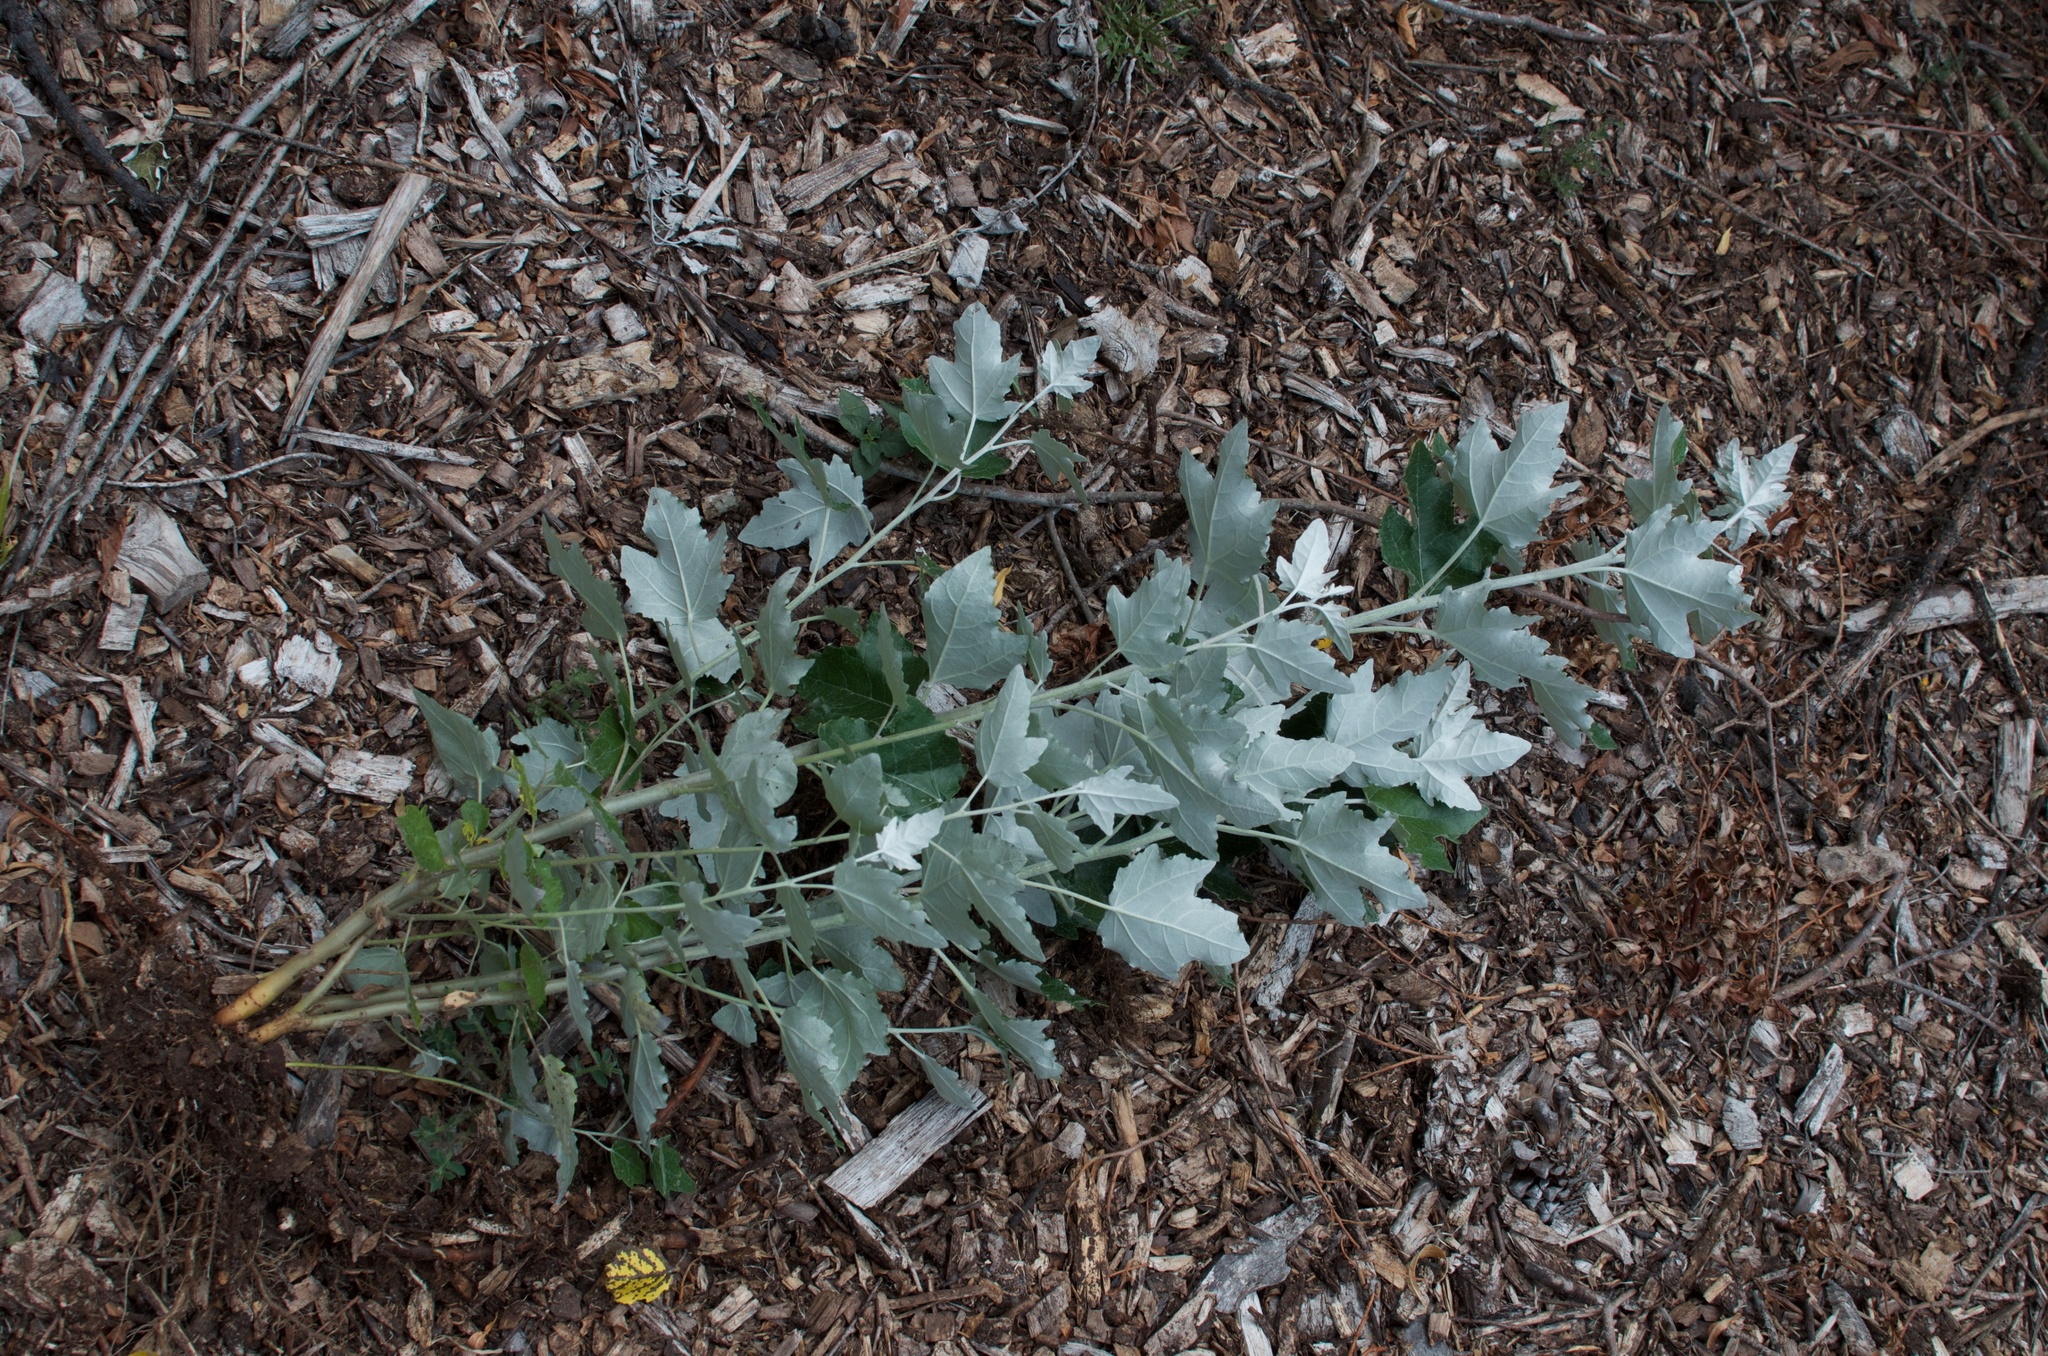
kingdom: Plantae
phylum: Tracheophyta
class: Magnoliopsida
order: Malpighiales
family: Salicaceae
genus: Populus
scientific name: Populus alba
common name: White poplar
